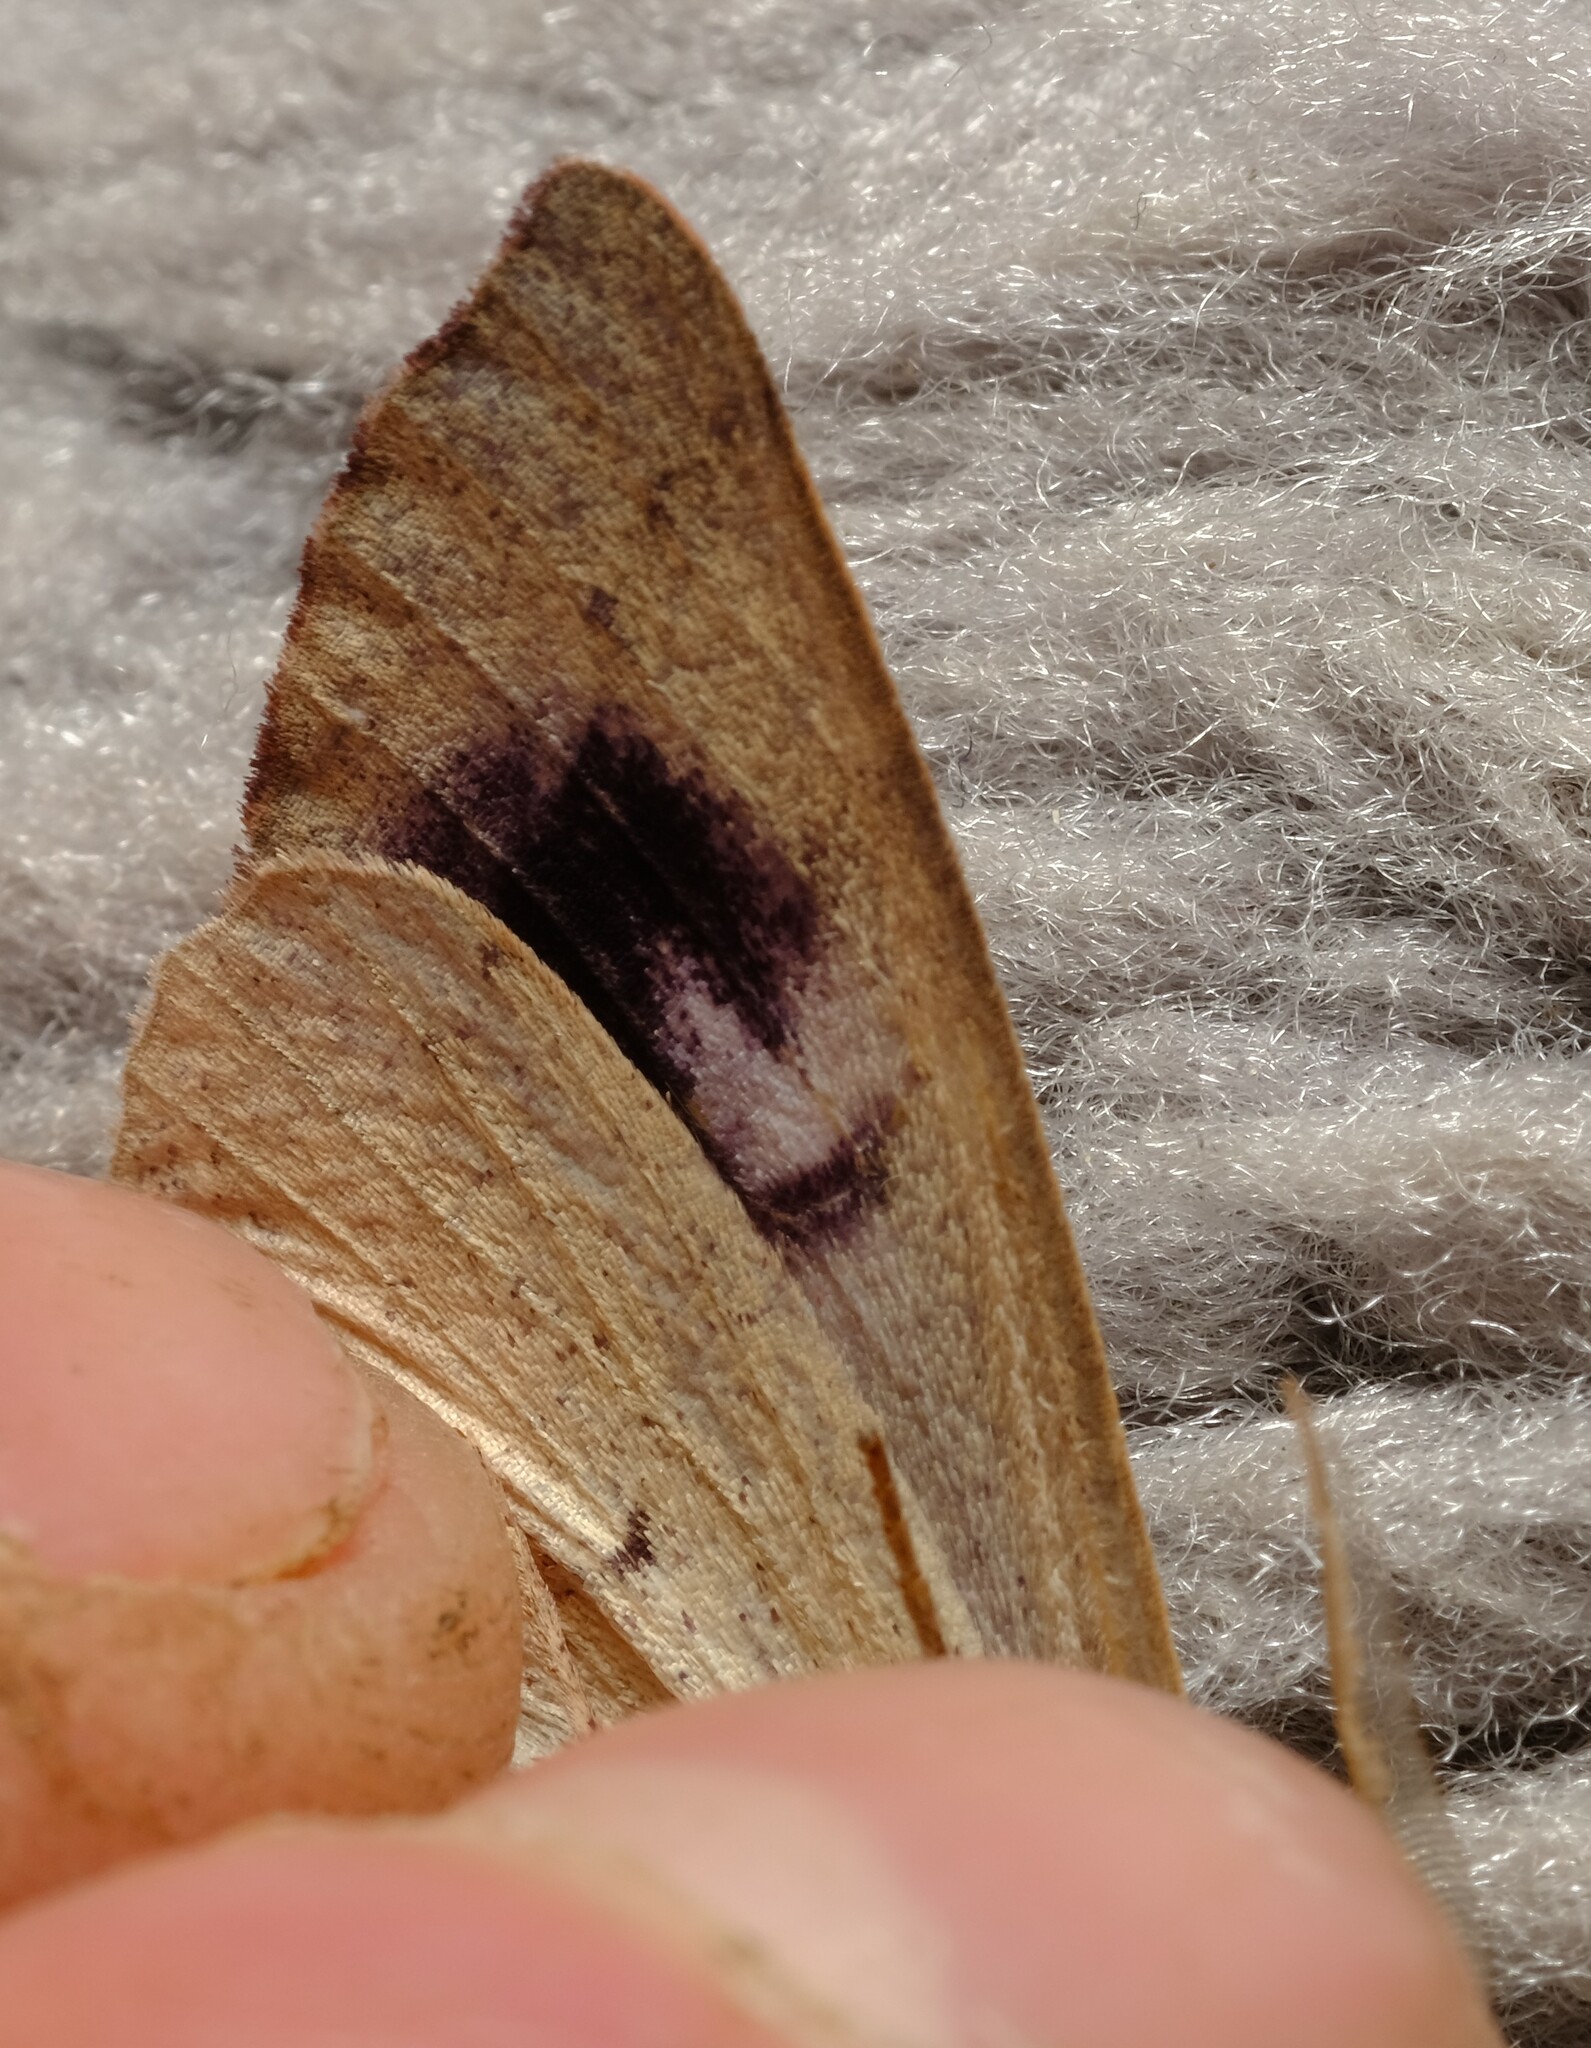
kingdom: Animalia
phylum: Arthropoda
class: Insecta
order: Lepidoptera
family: Geometridae
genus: Arhodia
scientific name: Arhodia lasiocamparia
